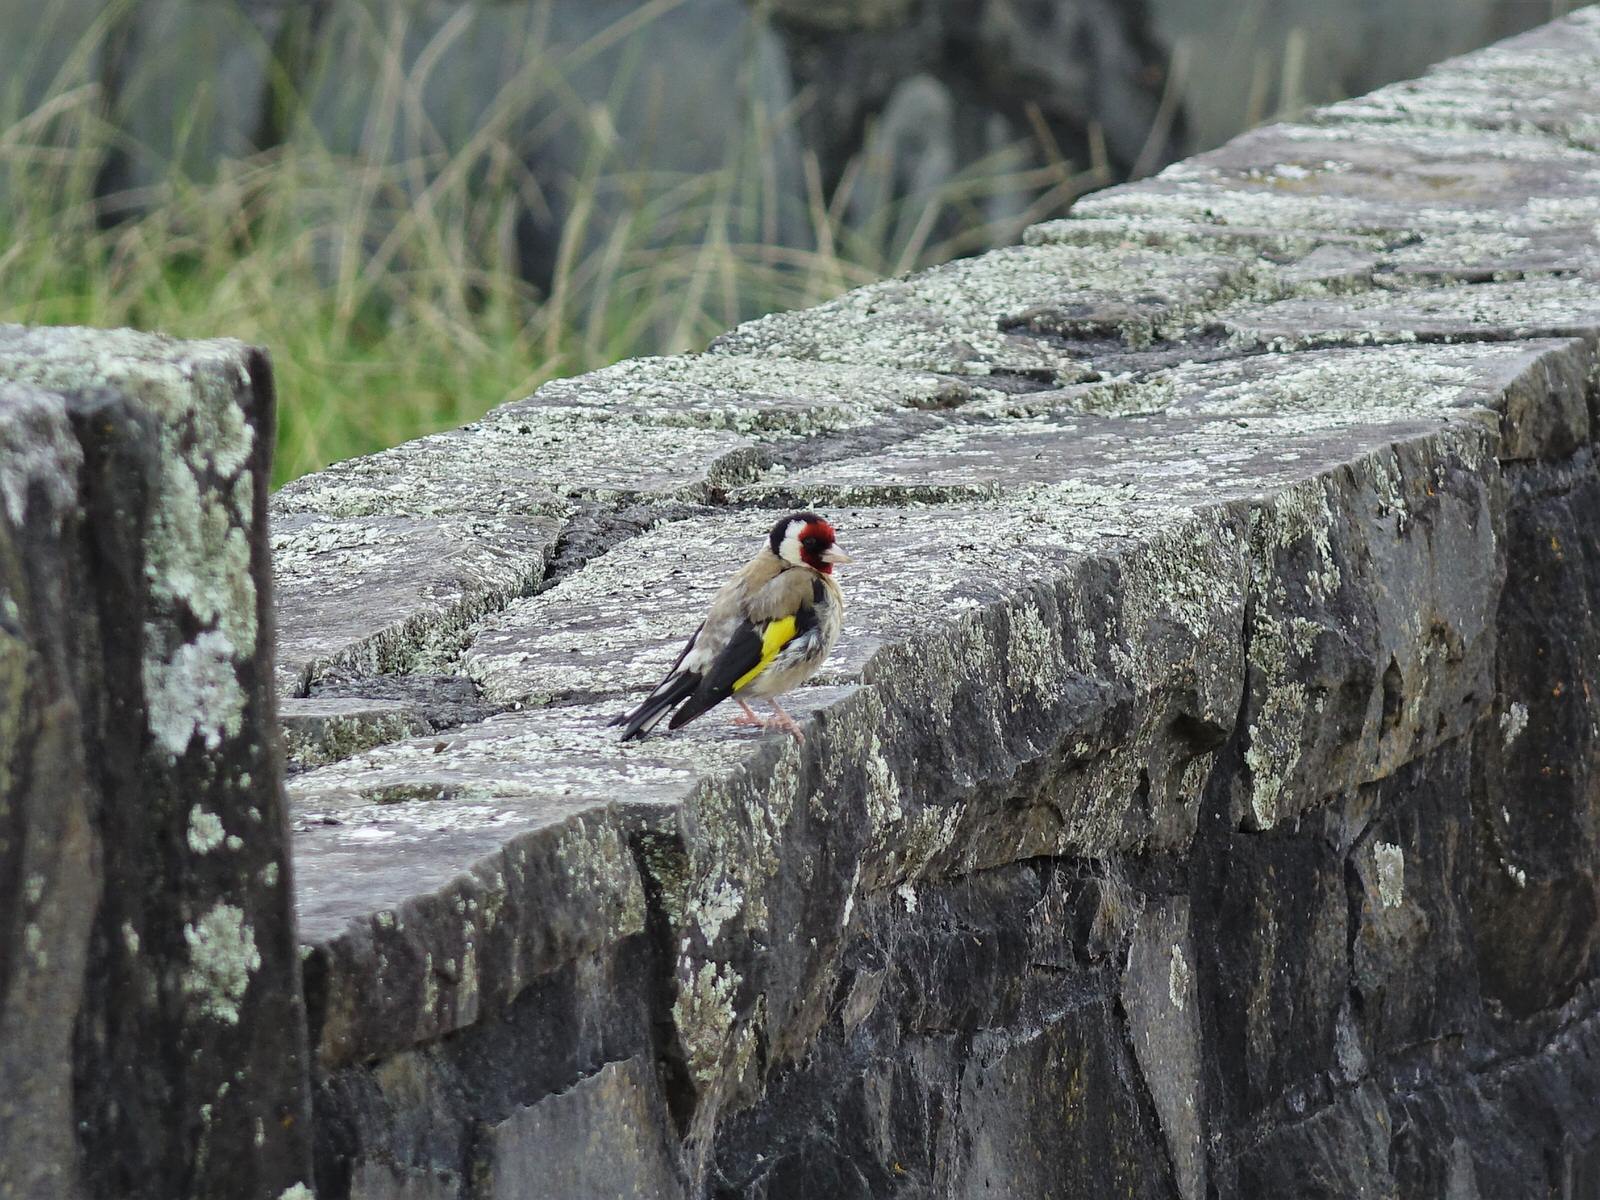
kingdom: Animalia
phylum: Chordata
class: Aves
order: Passeriformes
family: Fringillidae
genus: Carduelis
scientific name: Carduelis carduelis
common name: European goldfinch
